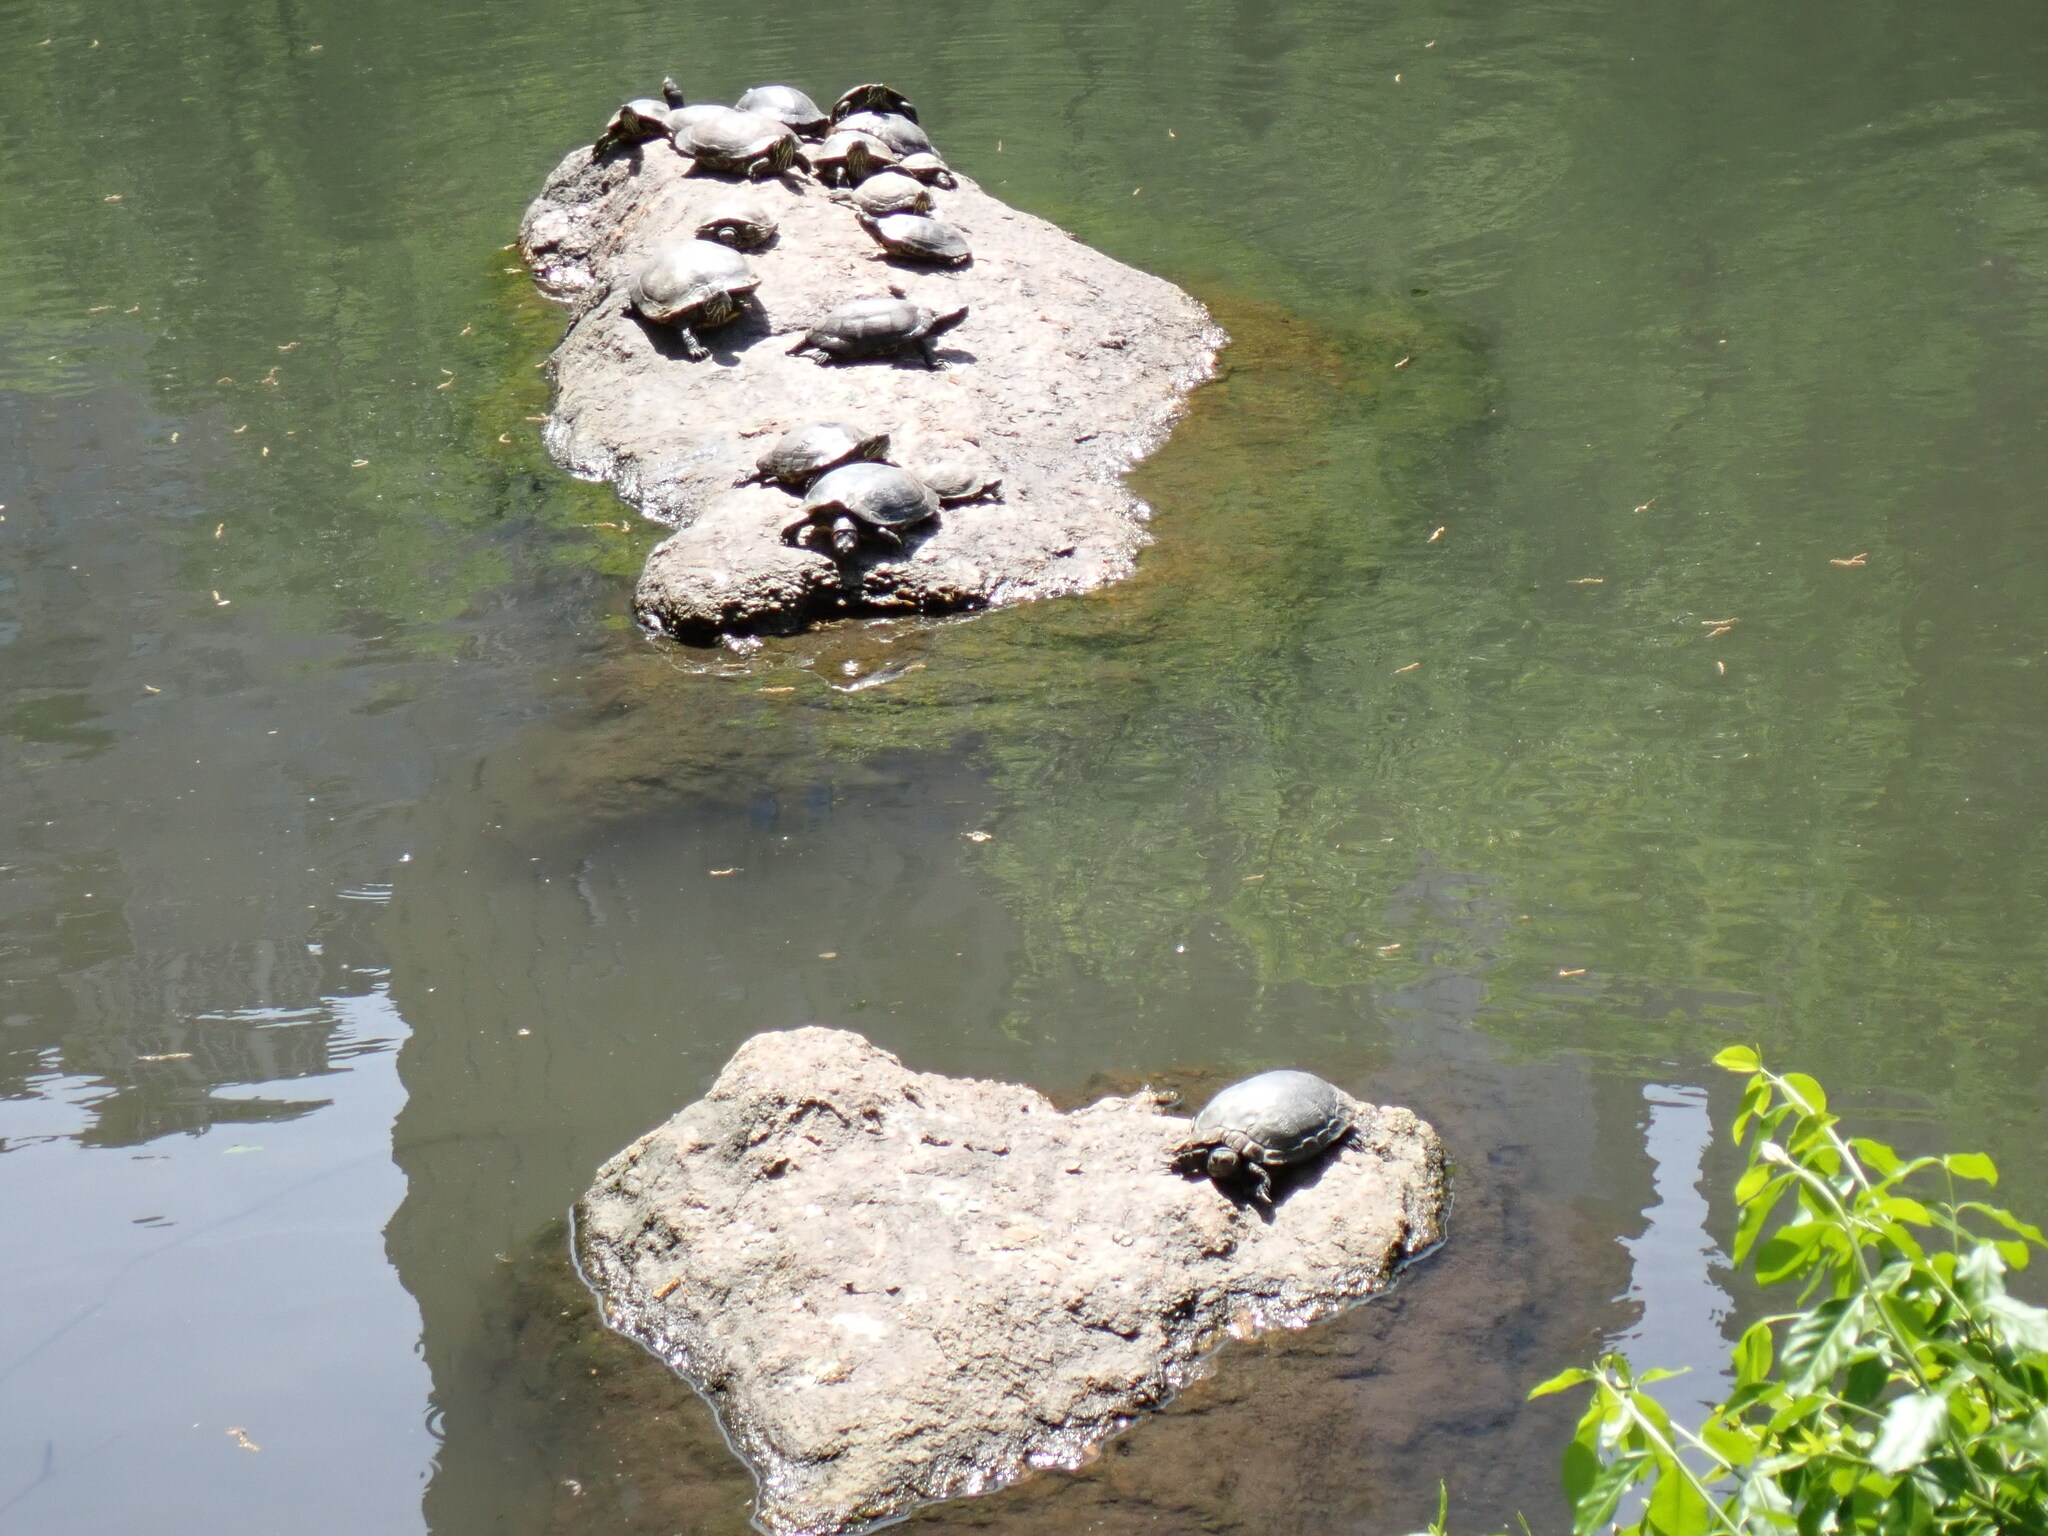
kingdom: Animalia
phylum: Chordata
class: Testudines
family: Emydidae
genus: Trachemys
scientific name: Trachemys scripta
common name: Slider
